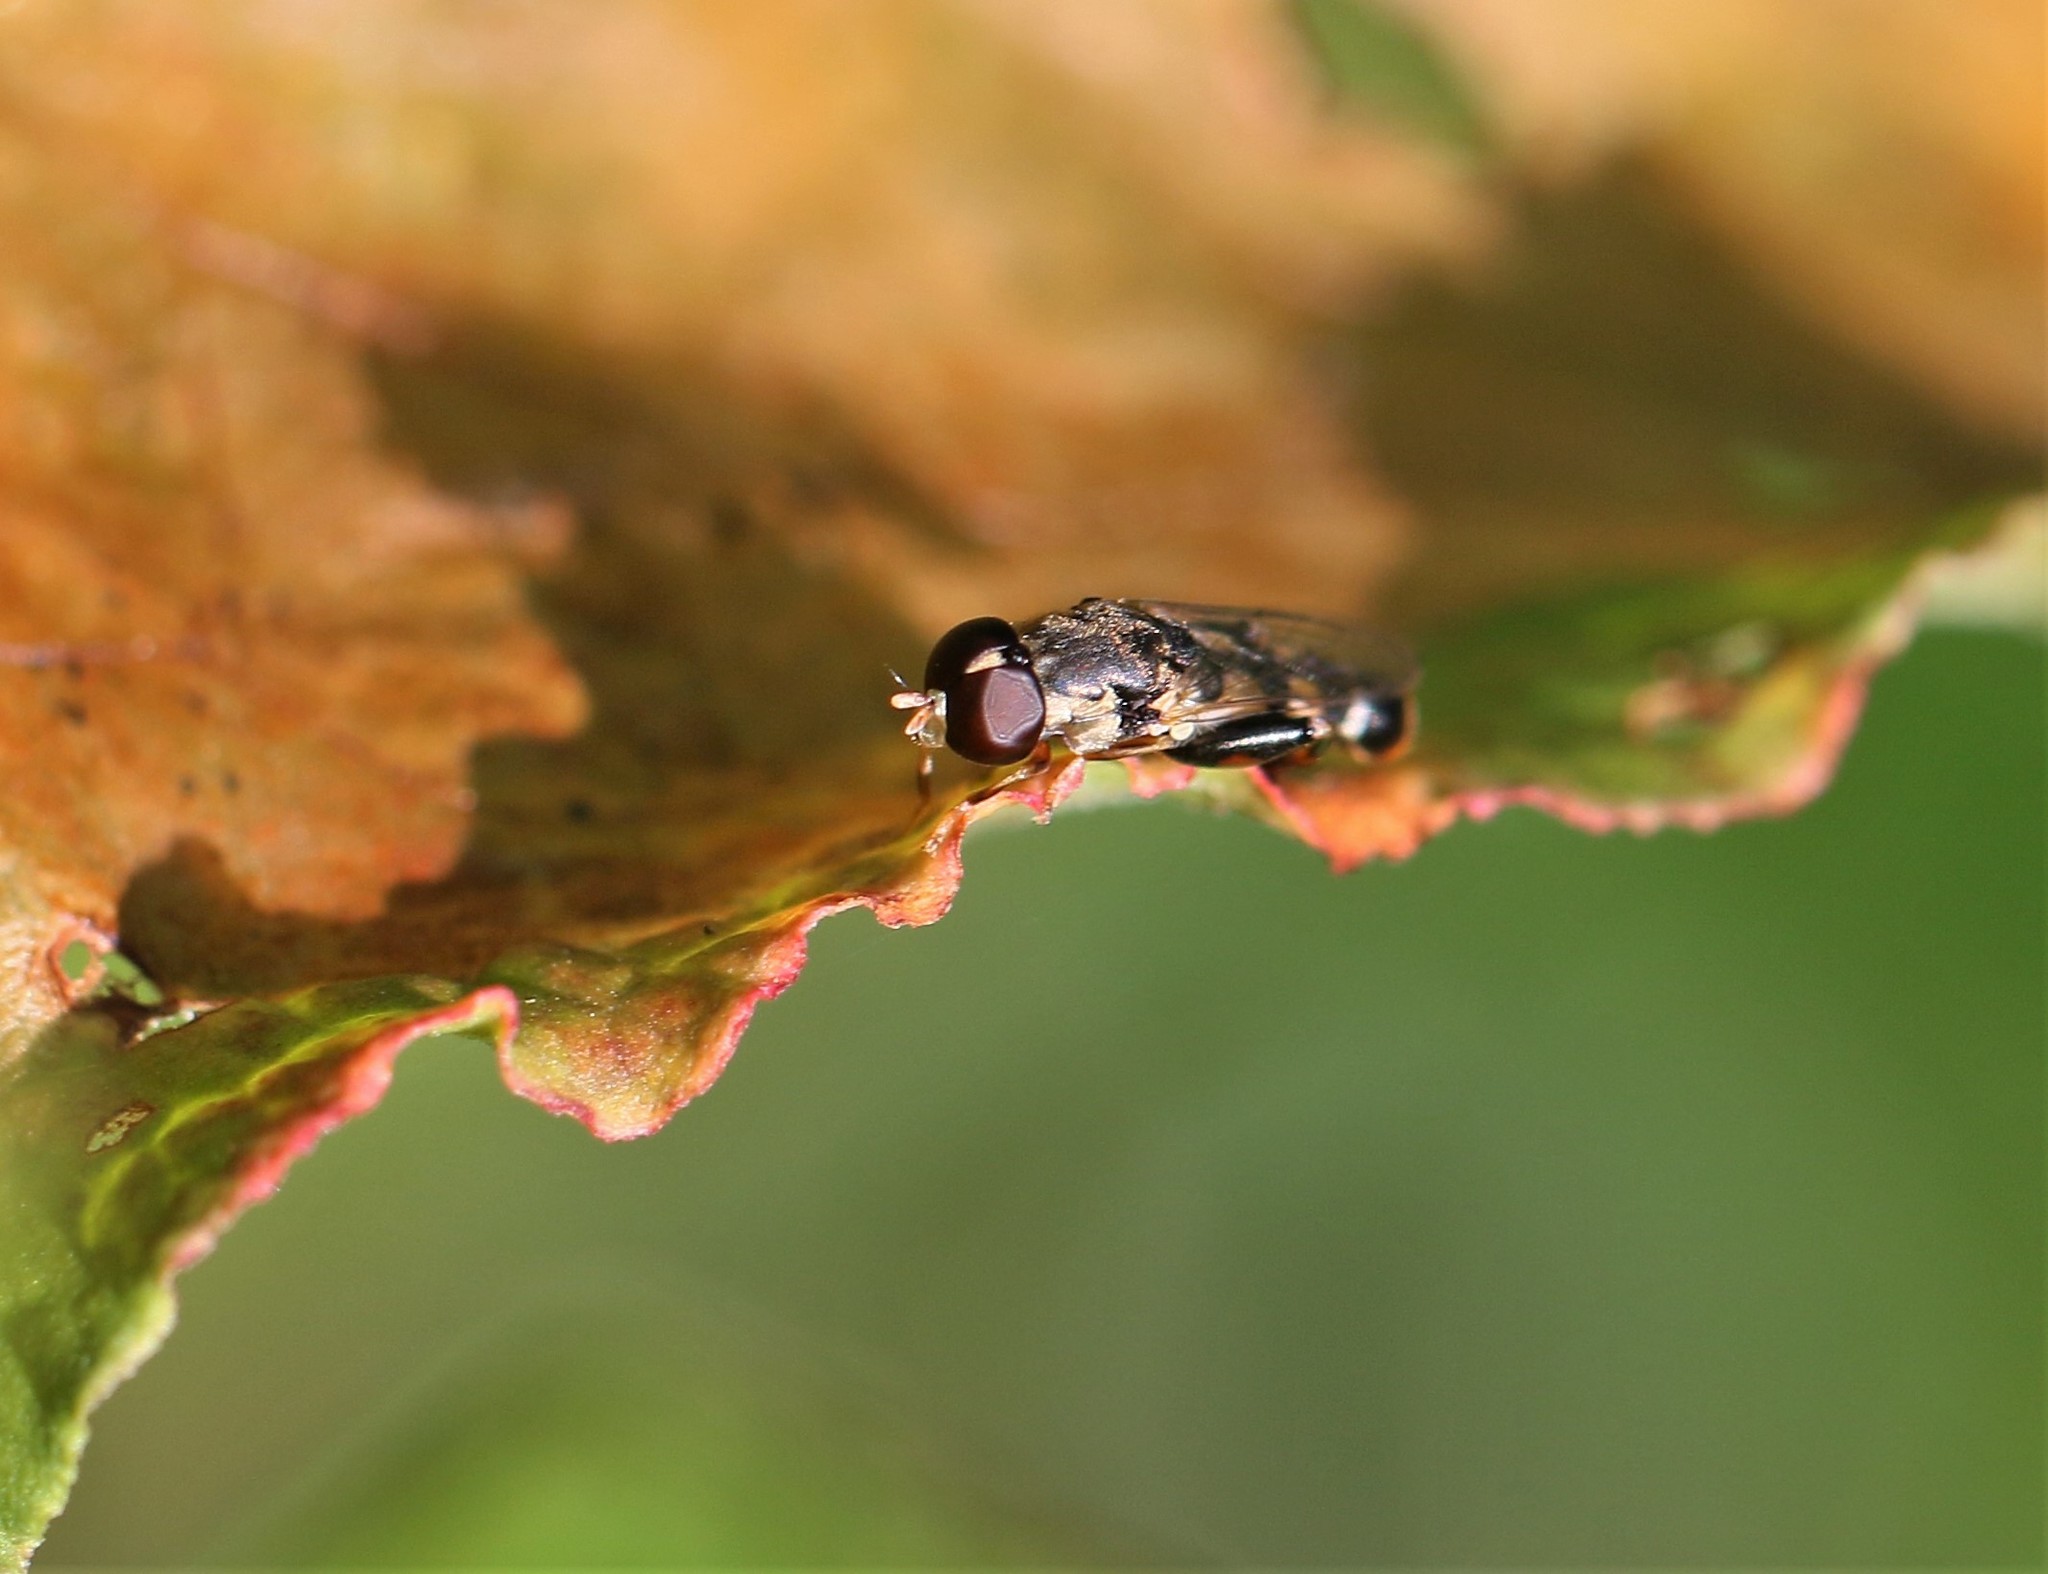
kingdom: Animalia
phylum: Arthropoda
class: Insecta
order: Diptera
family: Syrphidae
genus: Syritta
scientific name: Syritta pipiens
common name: Hover fly
